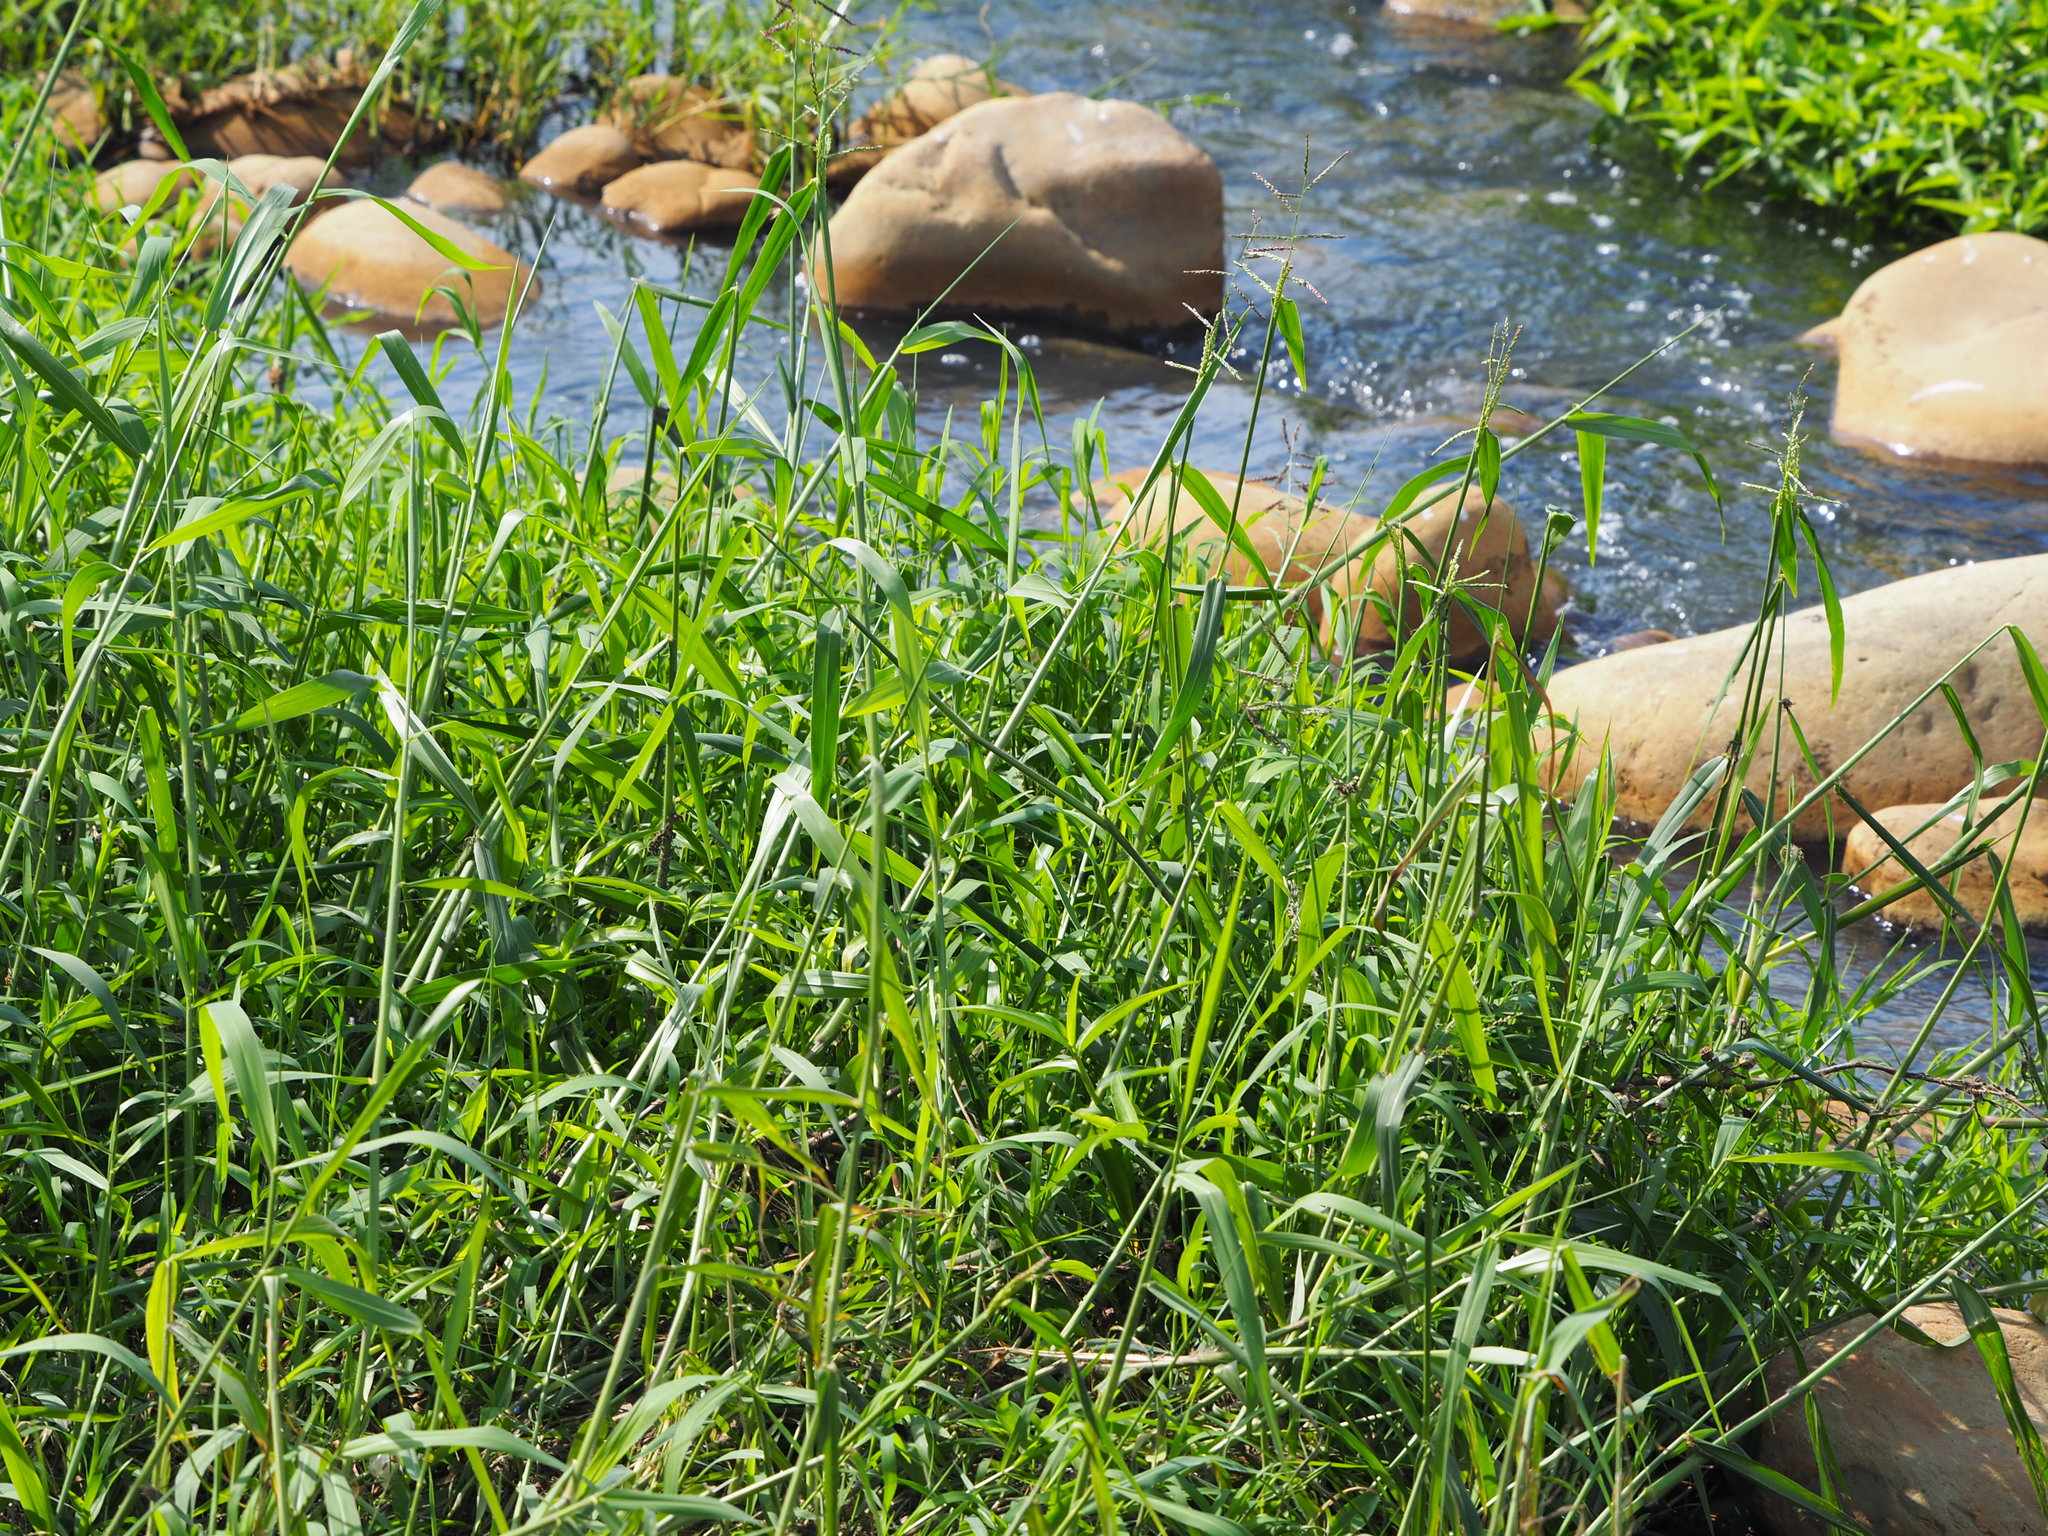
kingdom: Plantae
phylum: Tracheophyta
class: Liliopsida
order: Poales
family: Poaceae
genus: Urochloa
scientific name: Urochloa mutica
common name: Para grass
